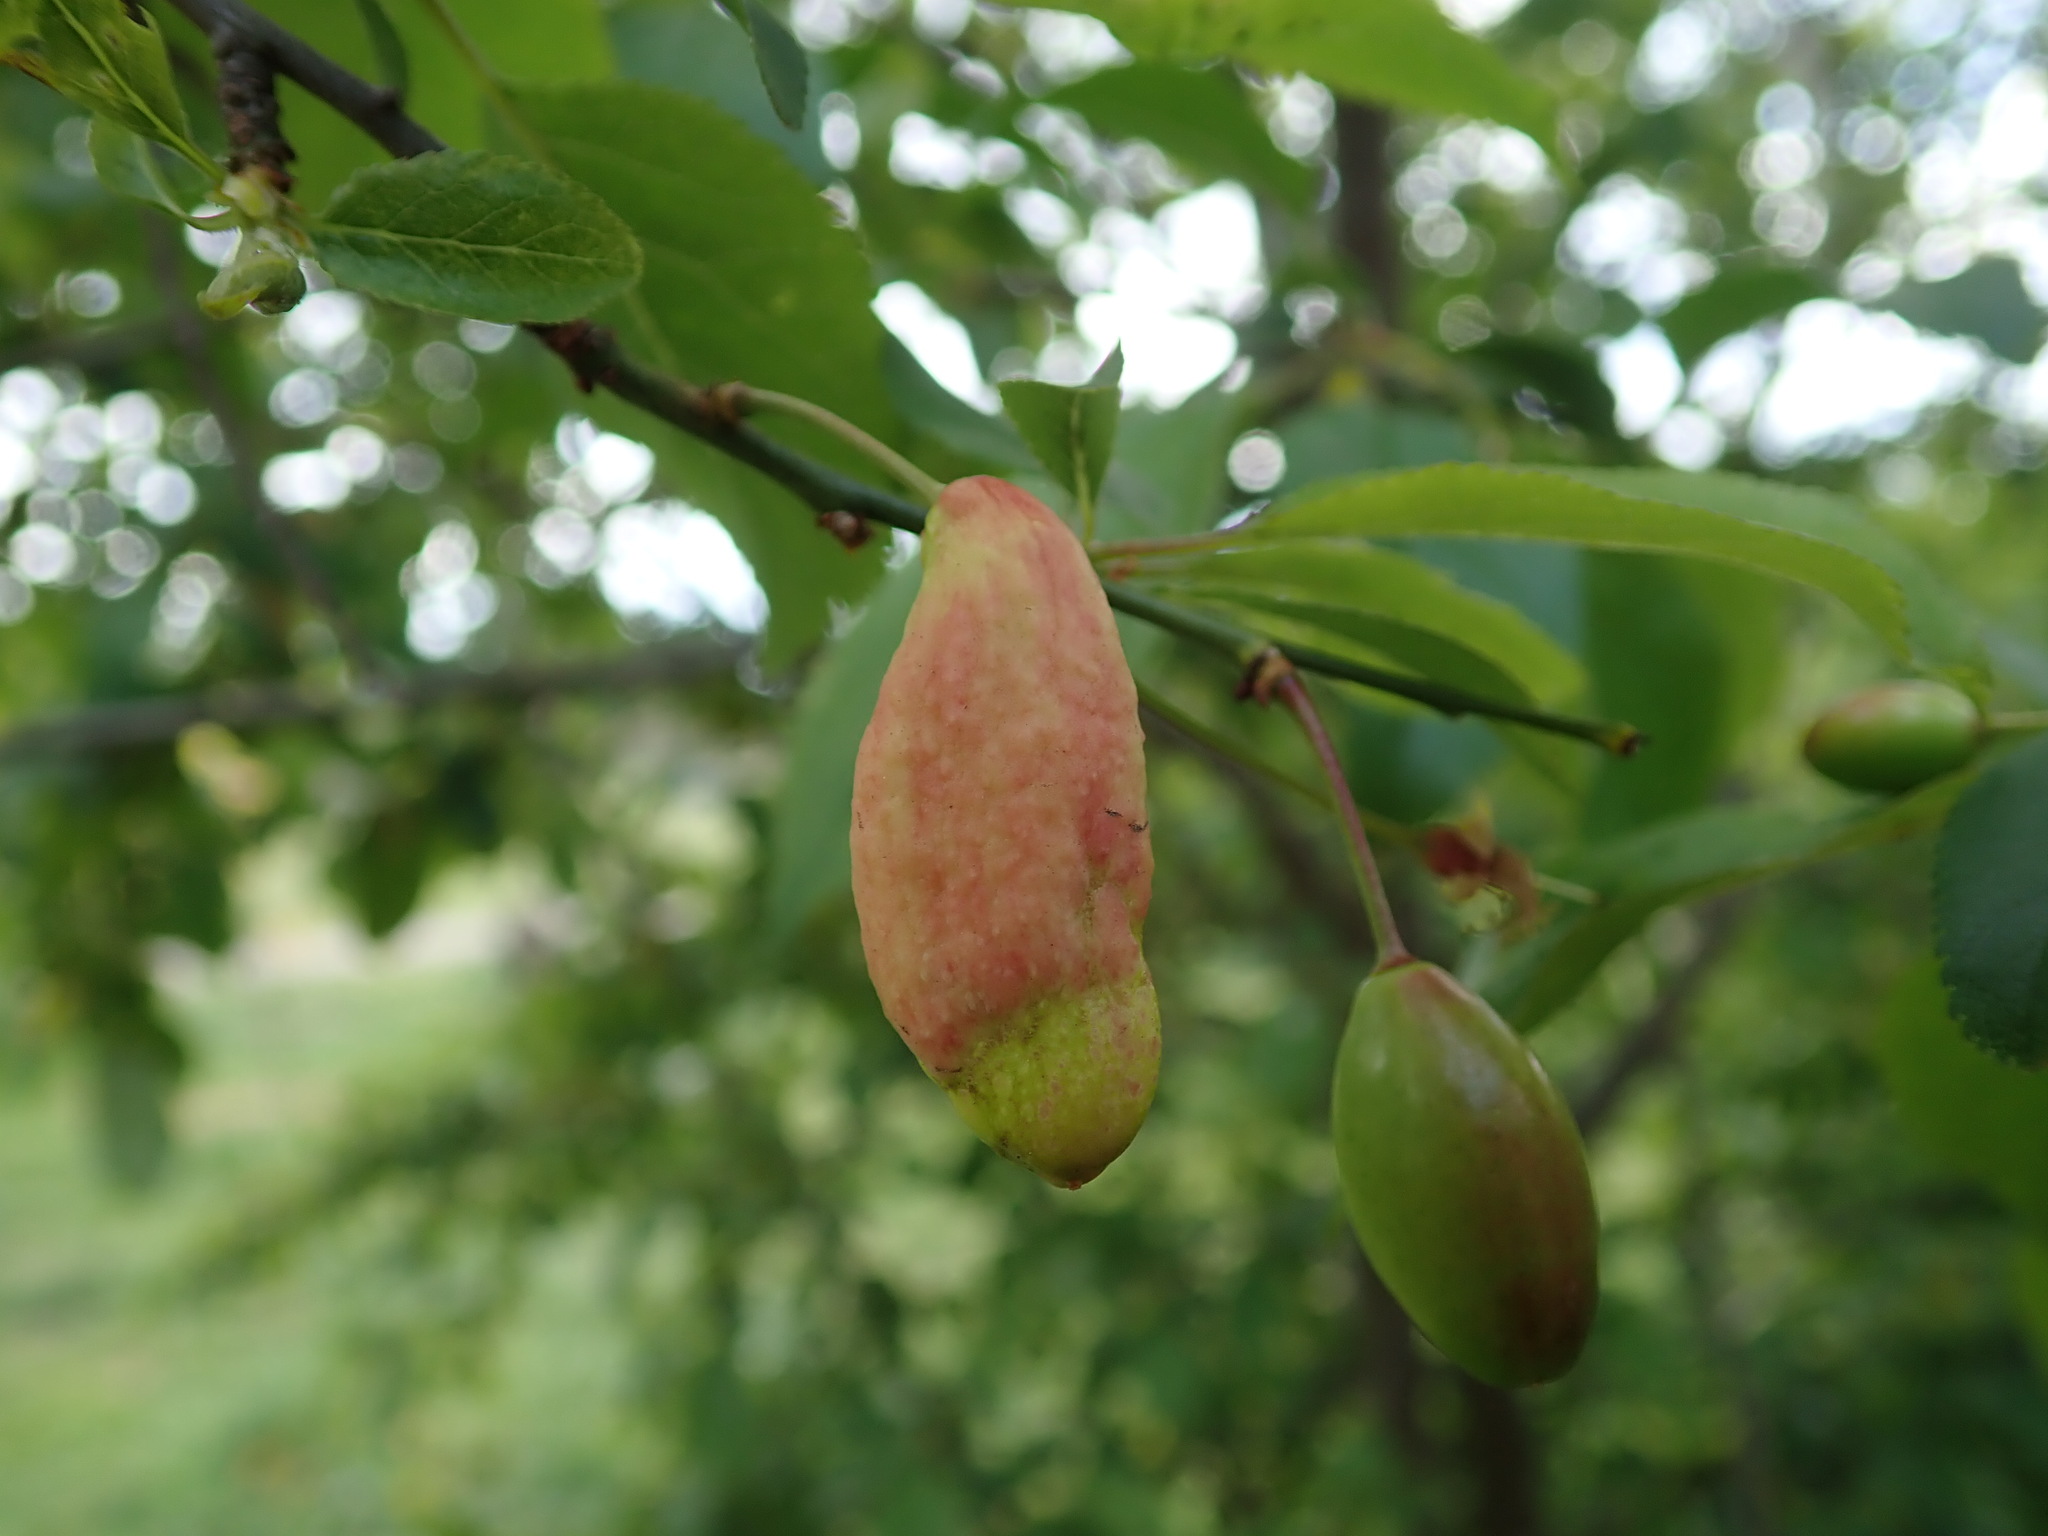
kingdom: Fungi
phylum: Ascomycota
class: Taphrinomycetes
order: Taphrinales
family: Taphrinaceae
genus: Taphrina
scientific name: Taphrina pruni
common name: Pocket plum
